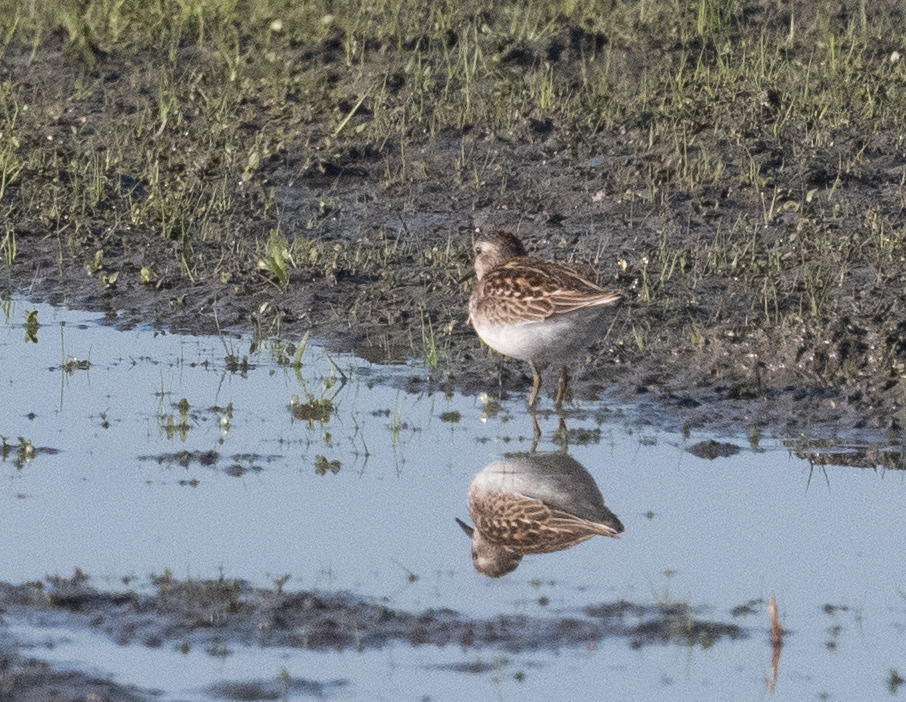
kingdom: Animalia
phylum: Chordata
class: Aves
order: Charadriiformes
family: Scolopacidae
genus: Calidris
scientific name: Calidris minutilla
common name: Least sandpiper
